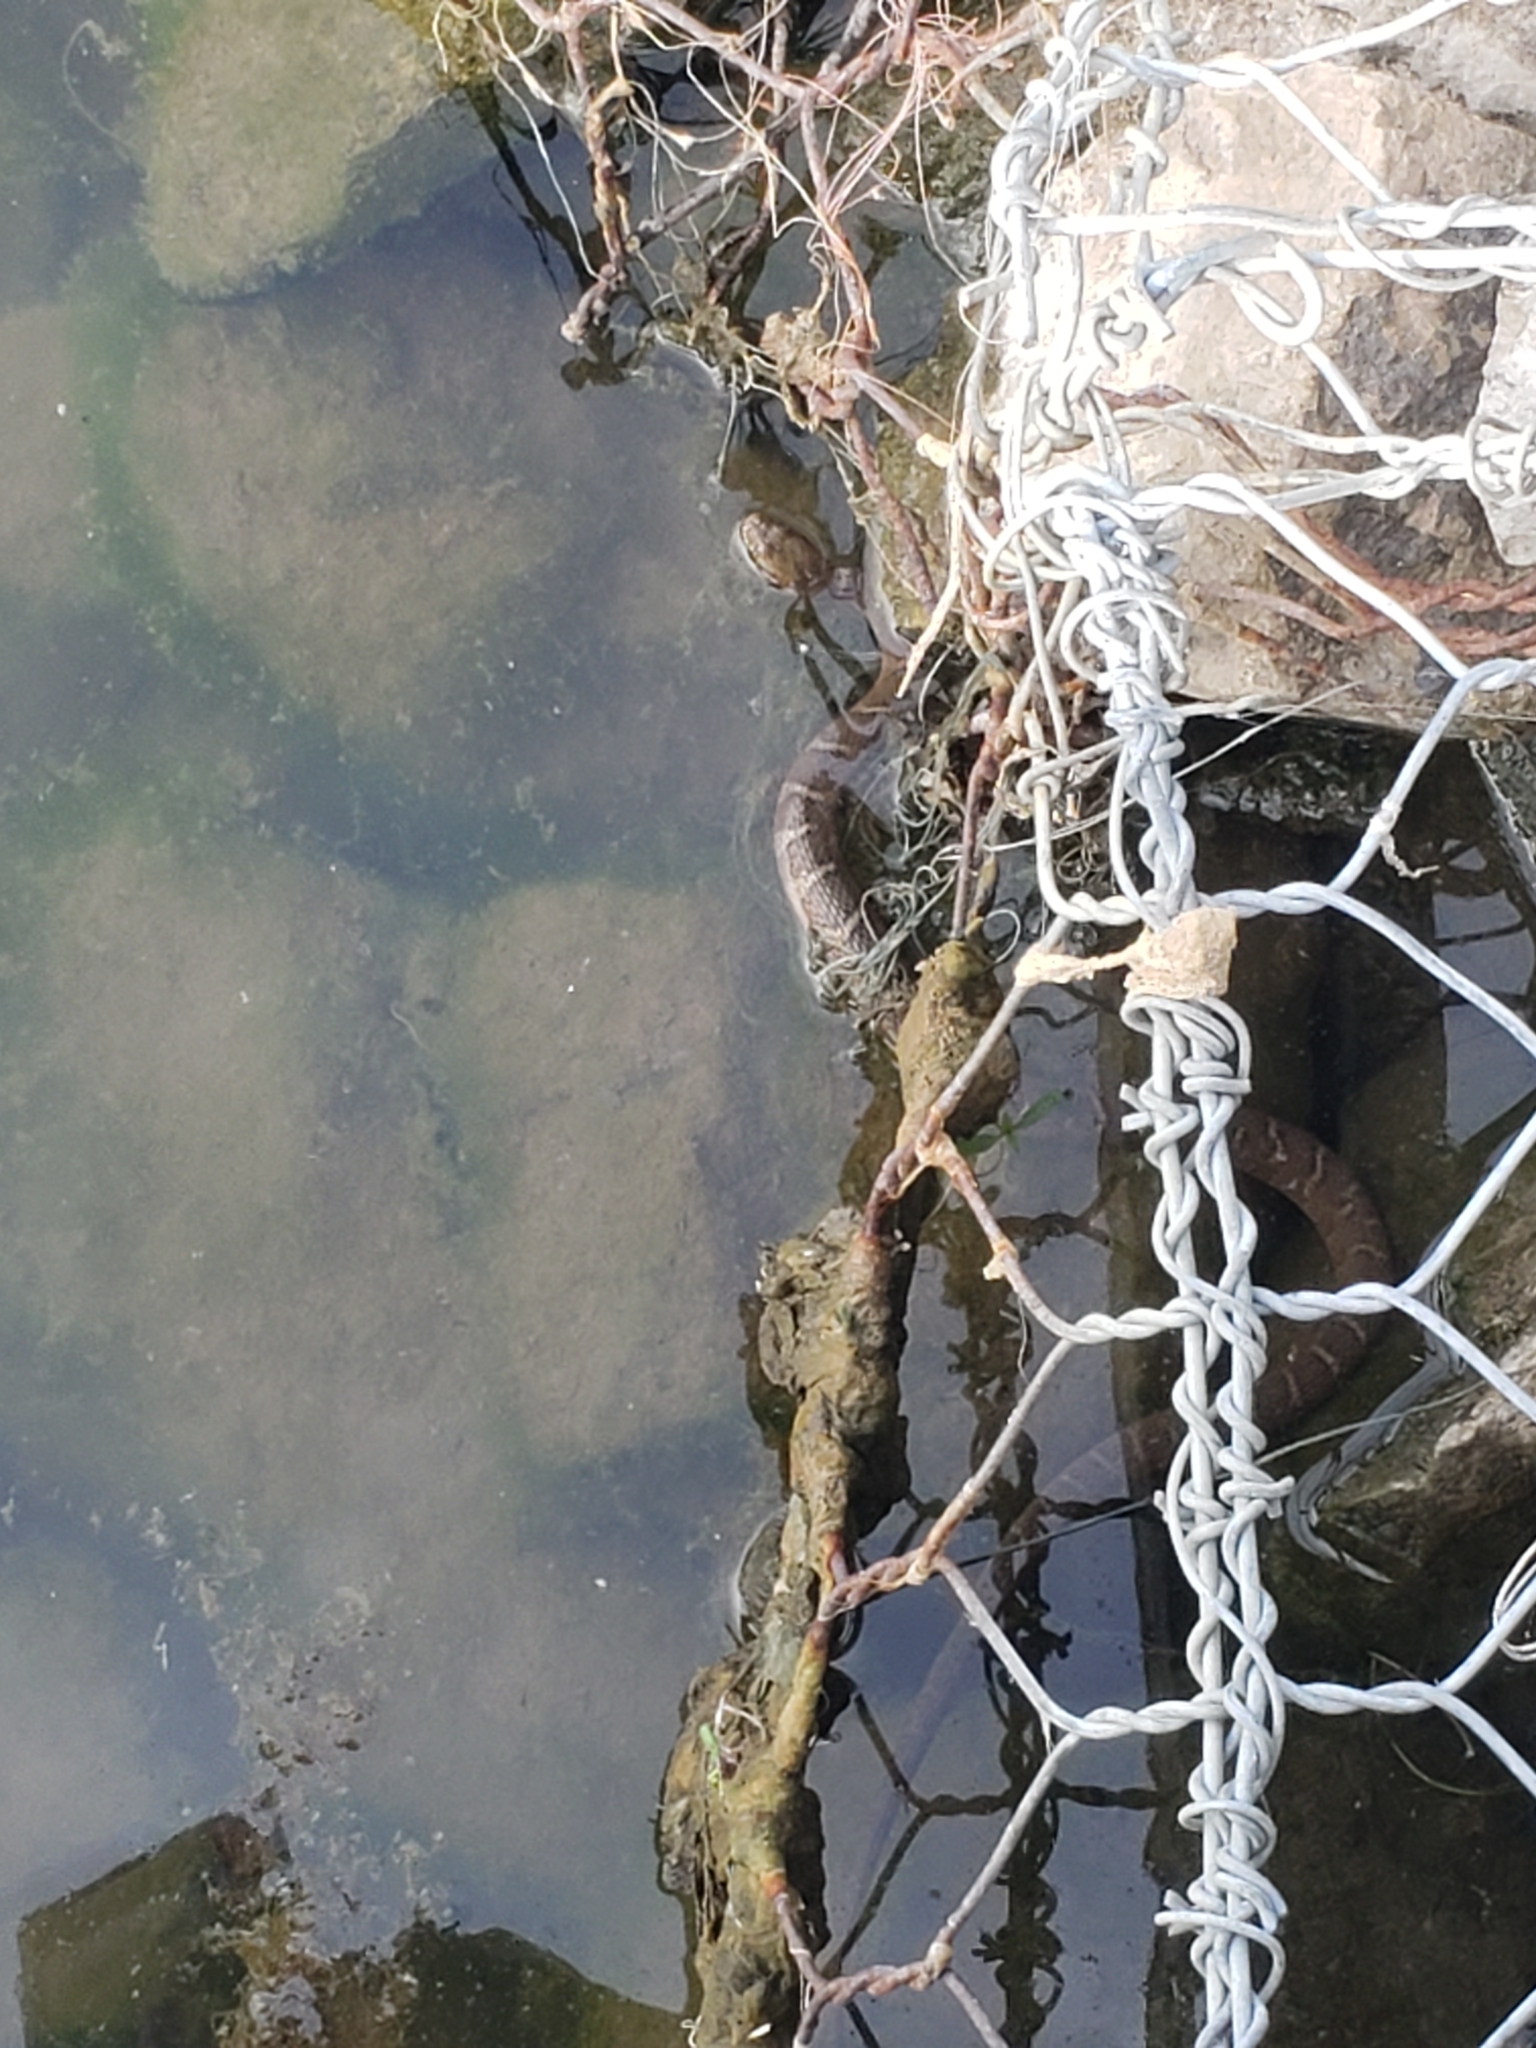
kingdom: Animalia
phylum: Chordata
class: Squamata
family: Colubridae
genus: Nerodia
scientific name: Nerodia sipedon
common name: Northern water snake
